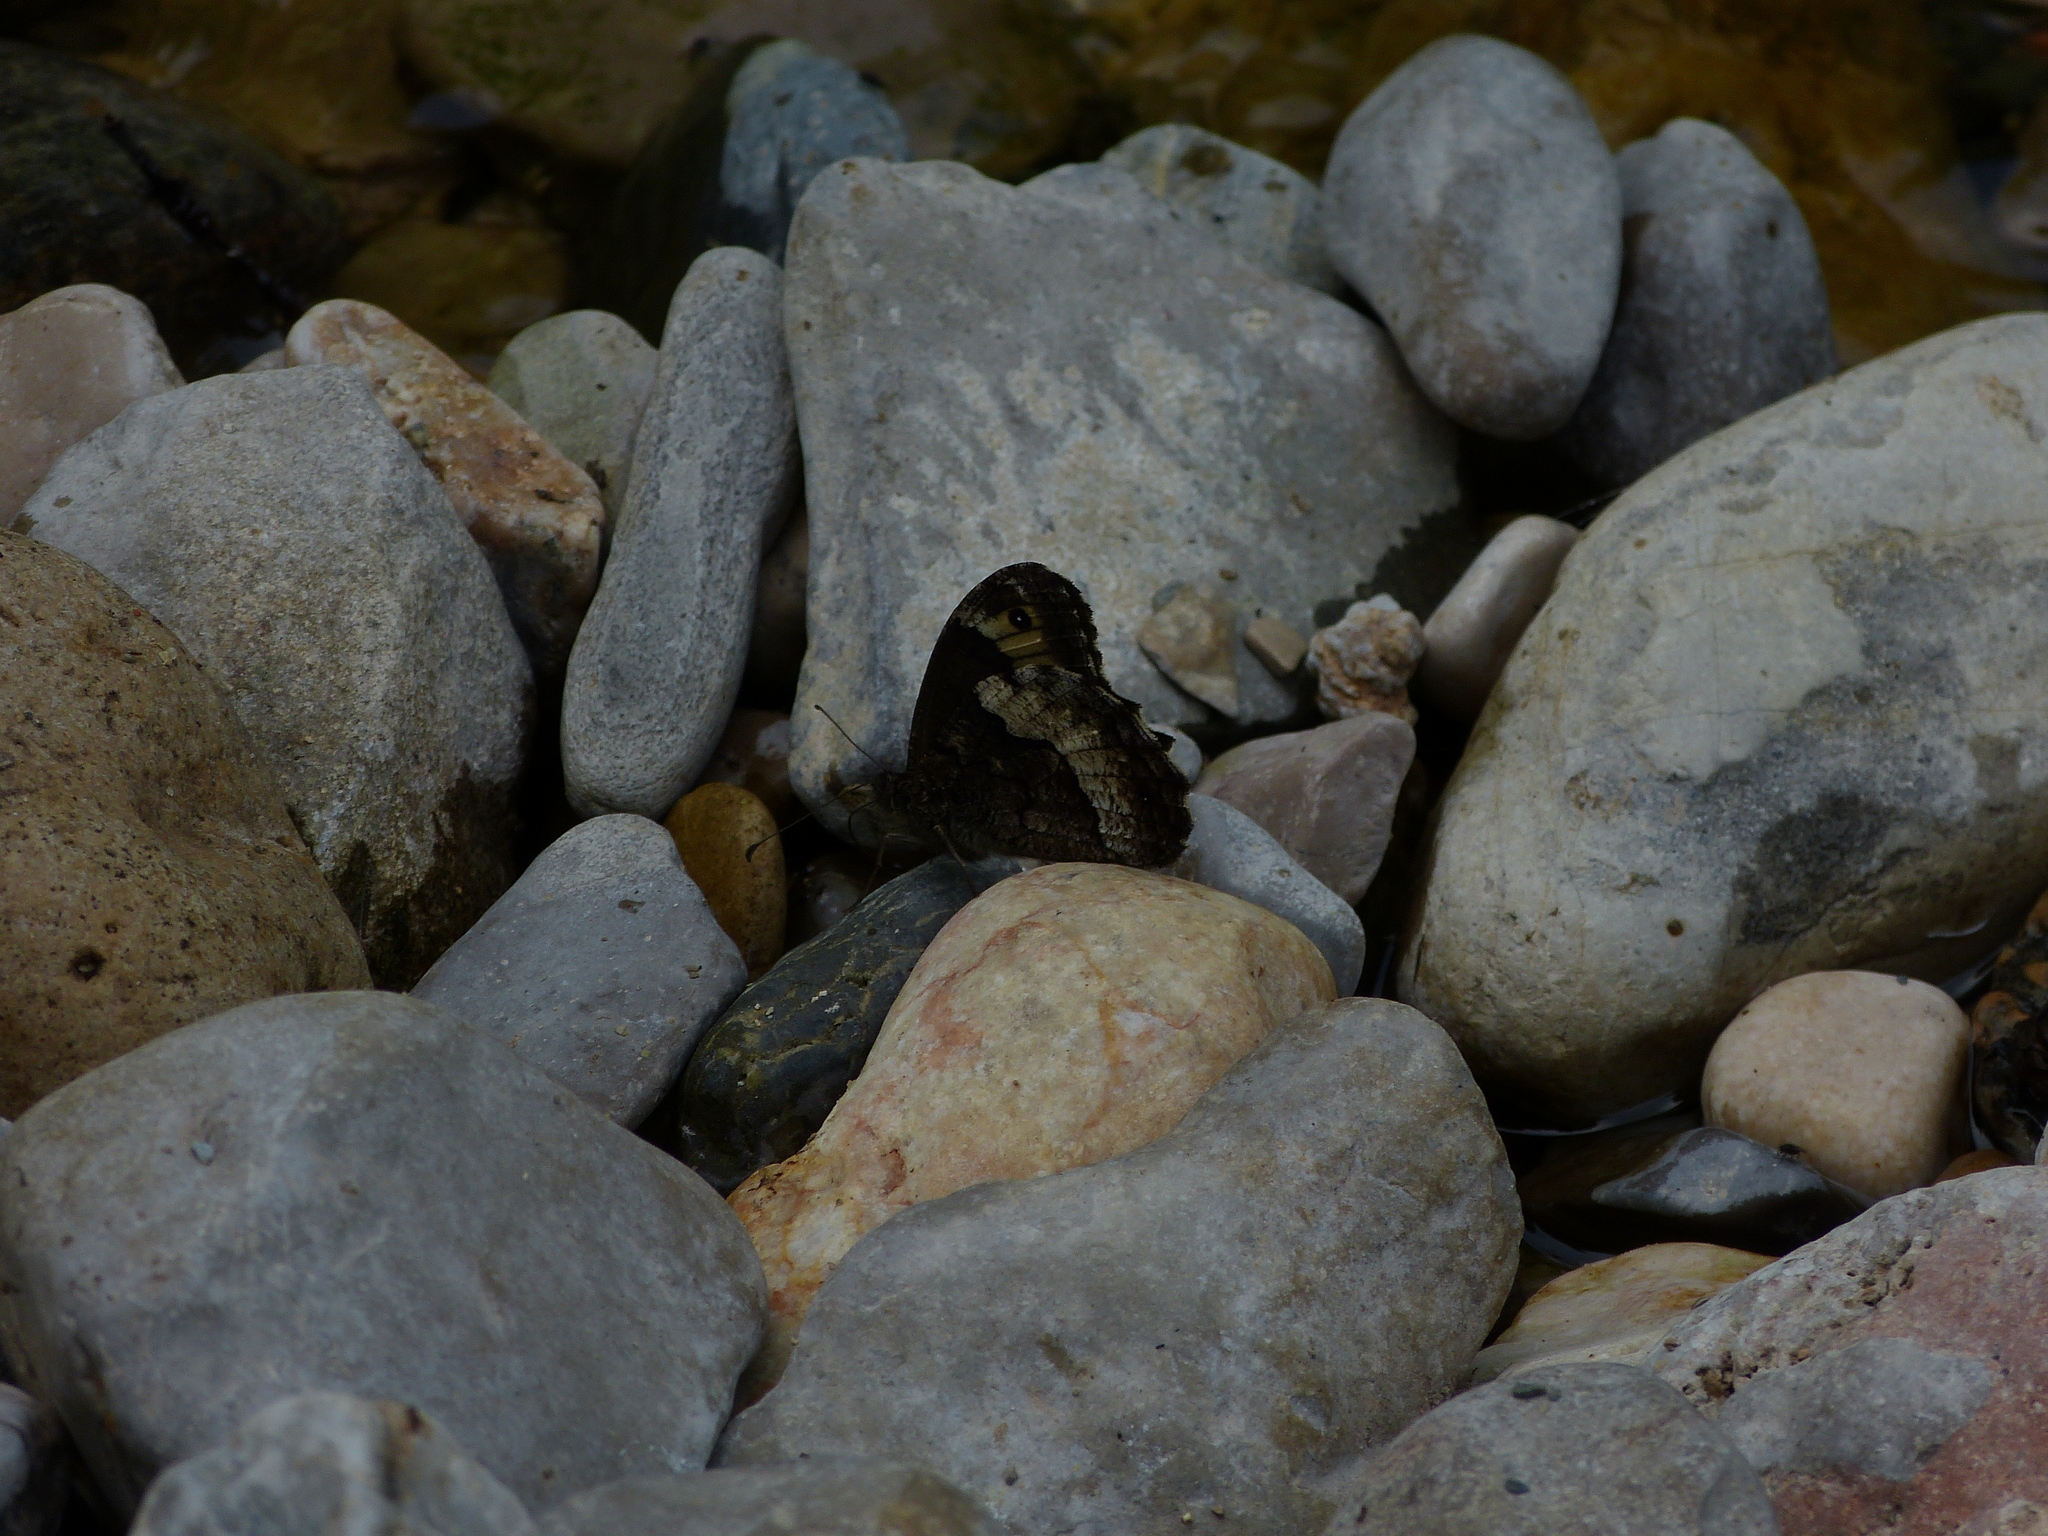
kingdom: Animalia
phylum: Arthropoda
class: Insecta
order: Lepidoptera
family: Nymphalidae
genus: Hipparchia
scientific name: Hipparchia fagi
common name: Woodland grayling
